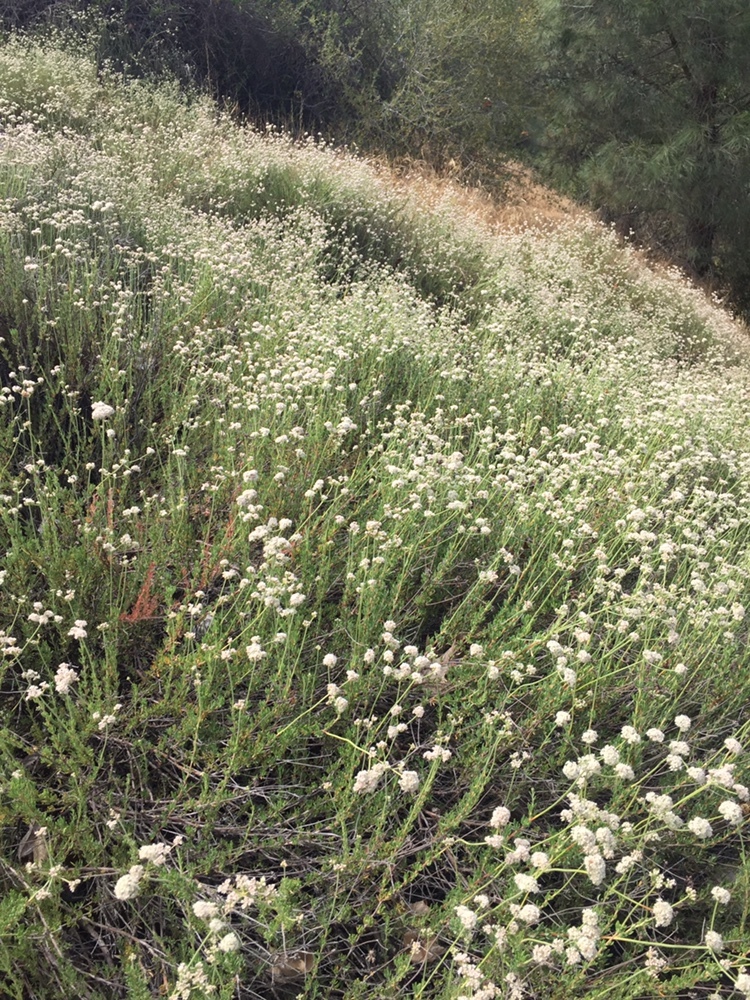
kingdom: Plantae
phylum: Tracheophyta
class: Magnoliopsida
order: Caryophyllales
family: Polygonaceae
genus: Eriogonum
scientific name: Eriogonum fasciculatum
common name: California wild buckwheat
